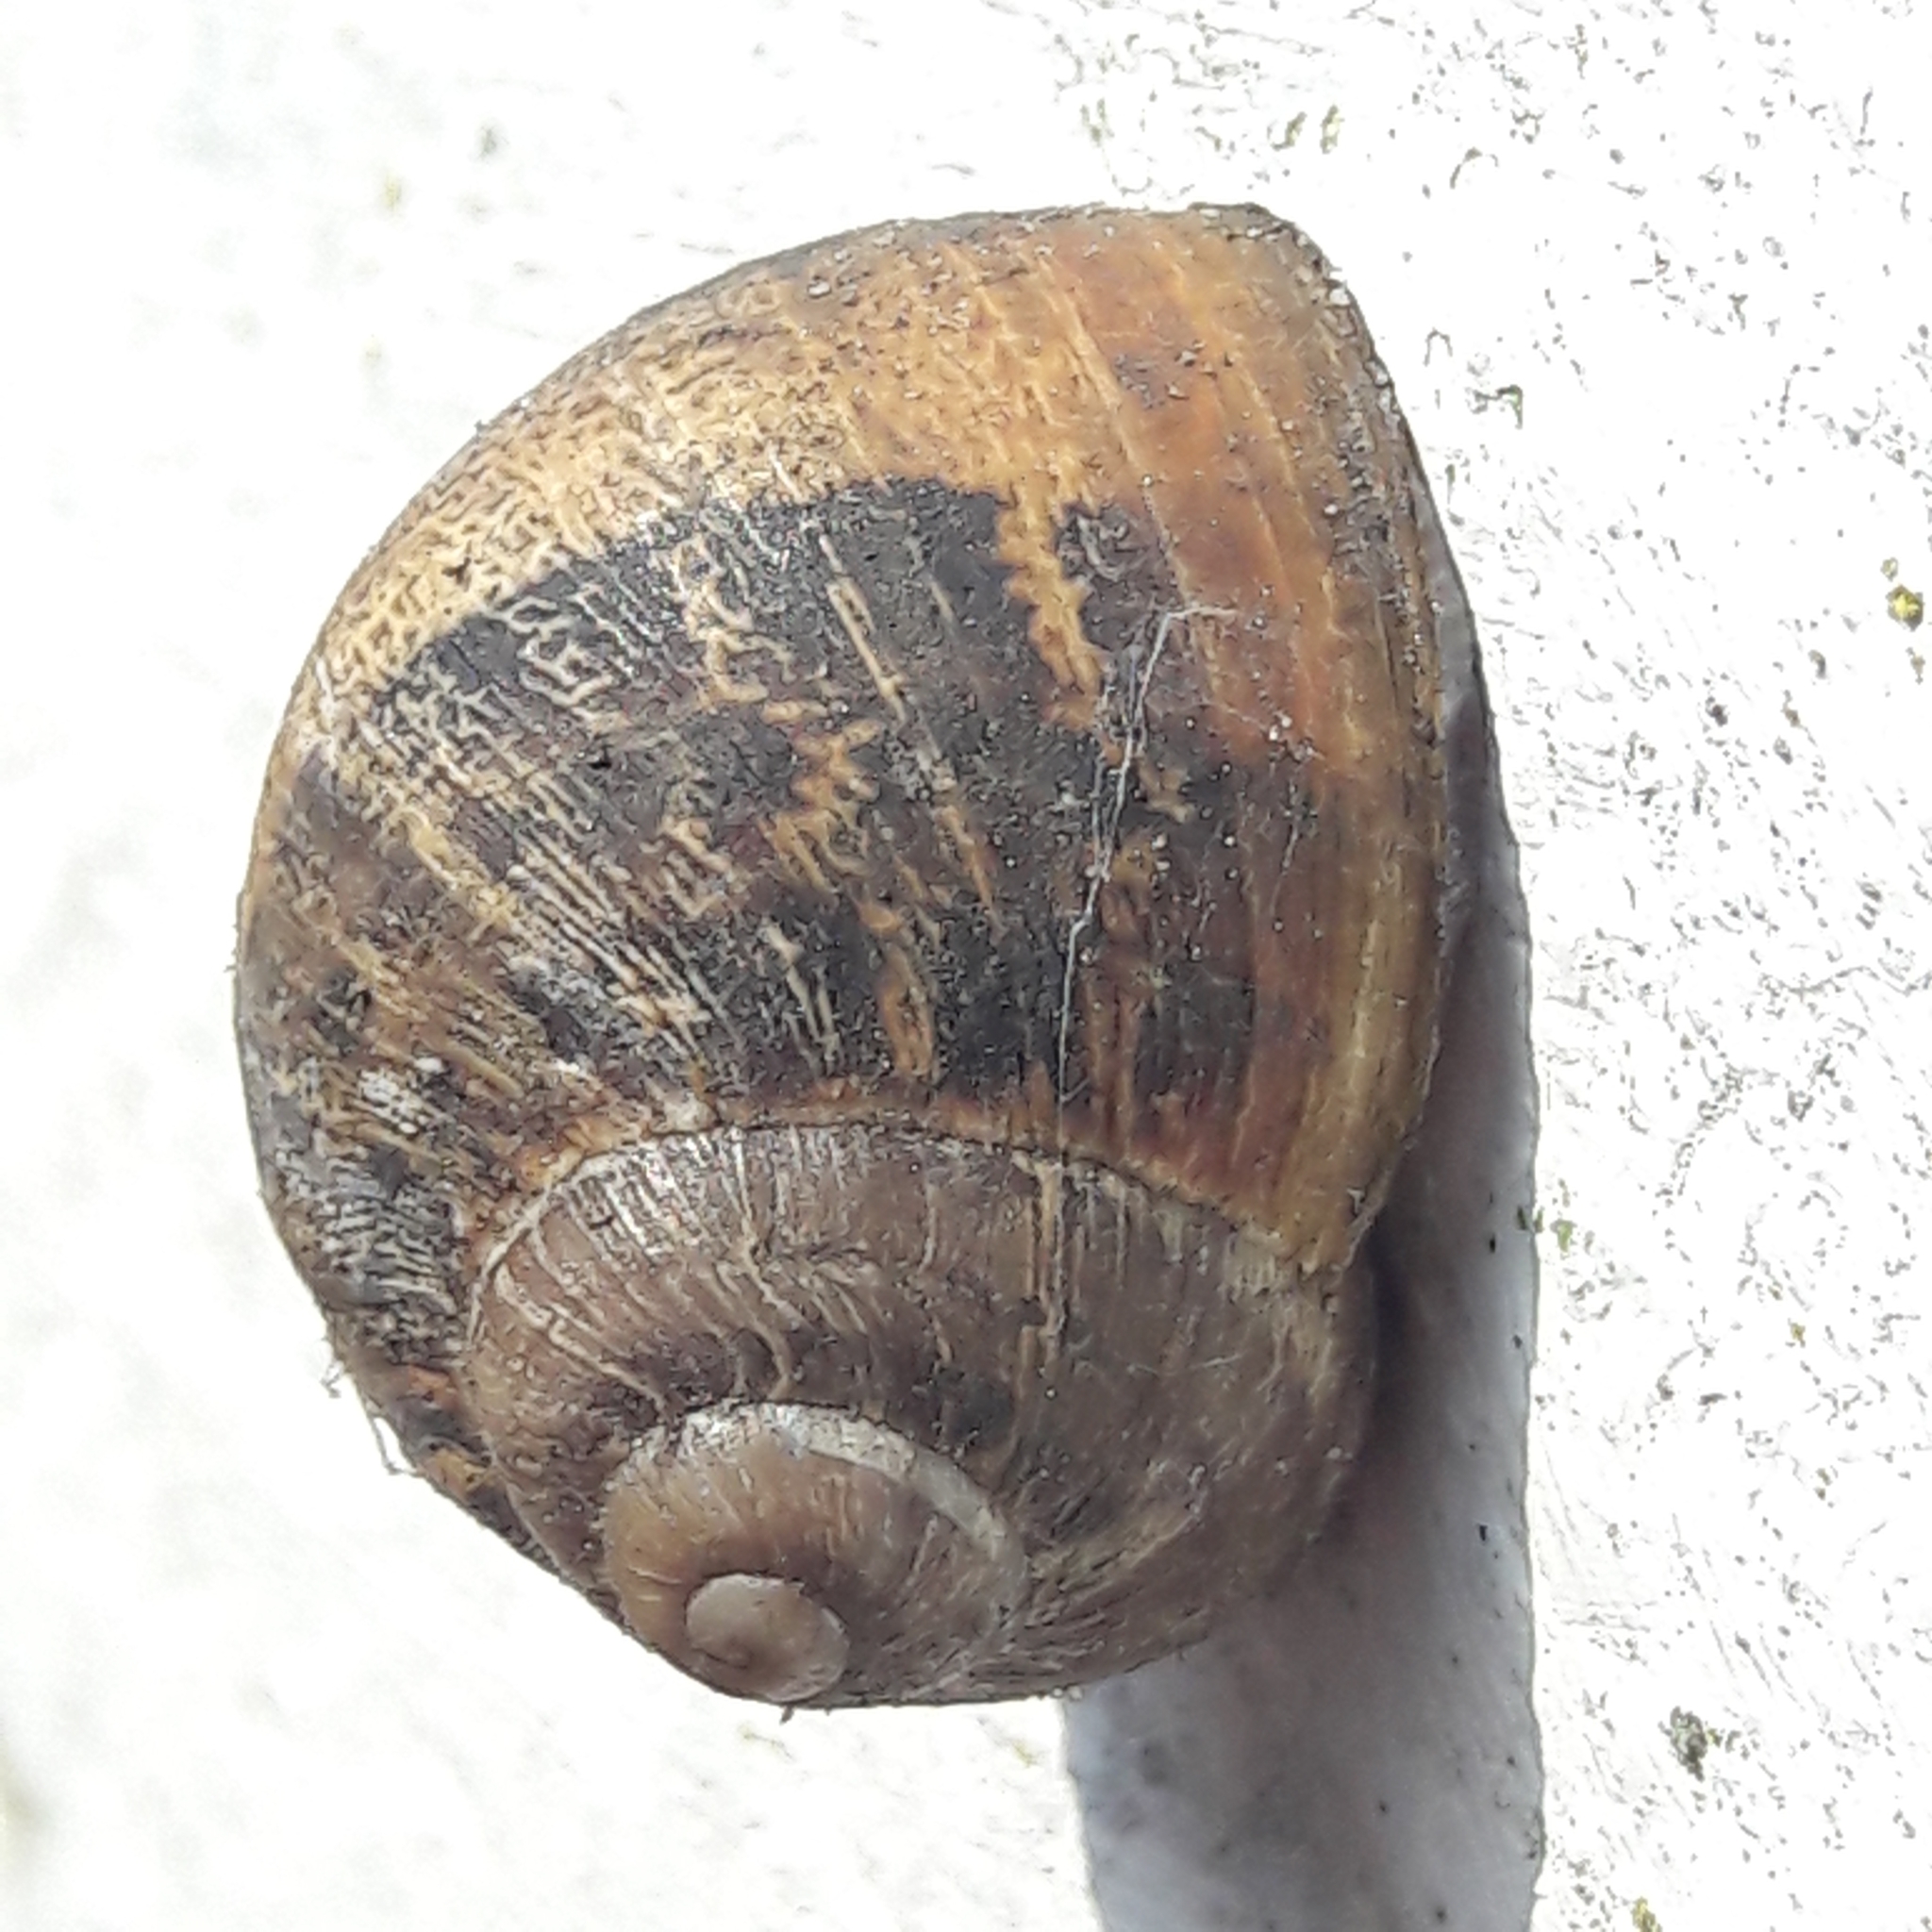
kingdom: Animalia
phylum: Mollusca
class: Gastropoda
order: Stylommatophora
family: Helicidae
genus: Cornu
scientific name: Cornu aspersum
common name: Brown garden snail
